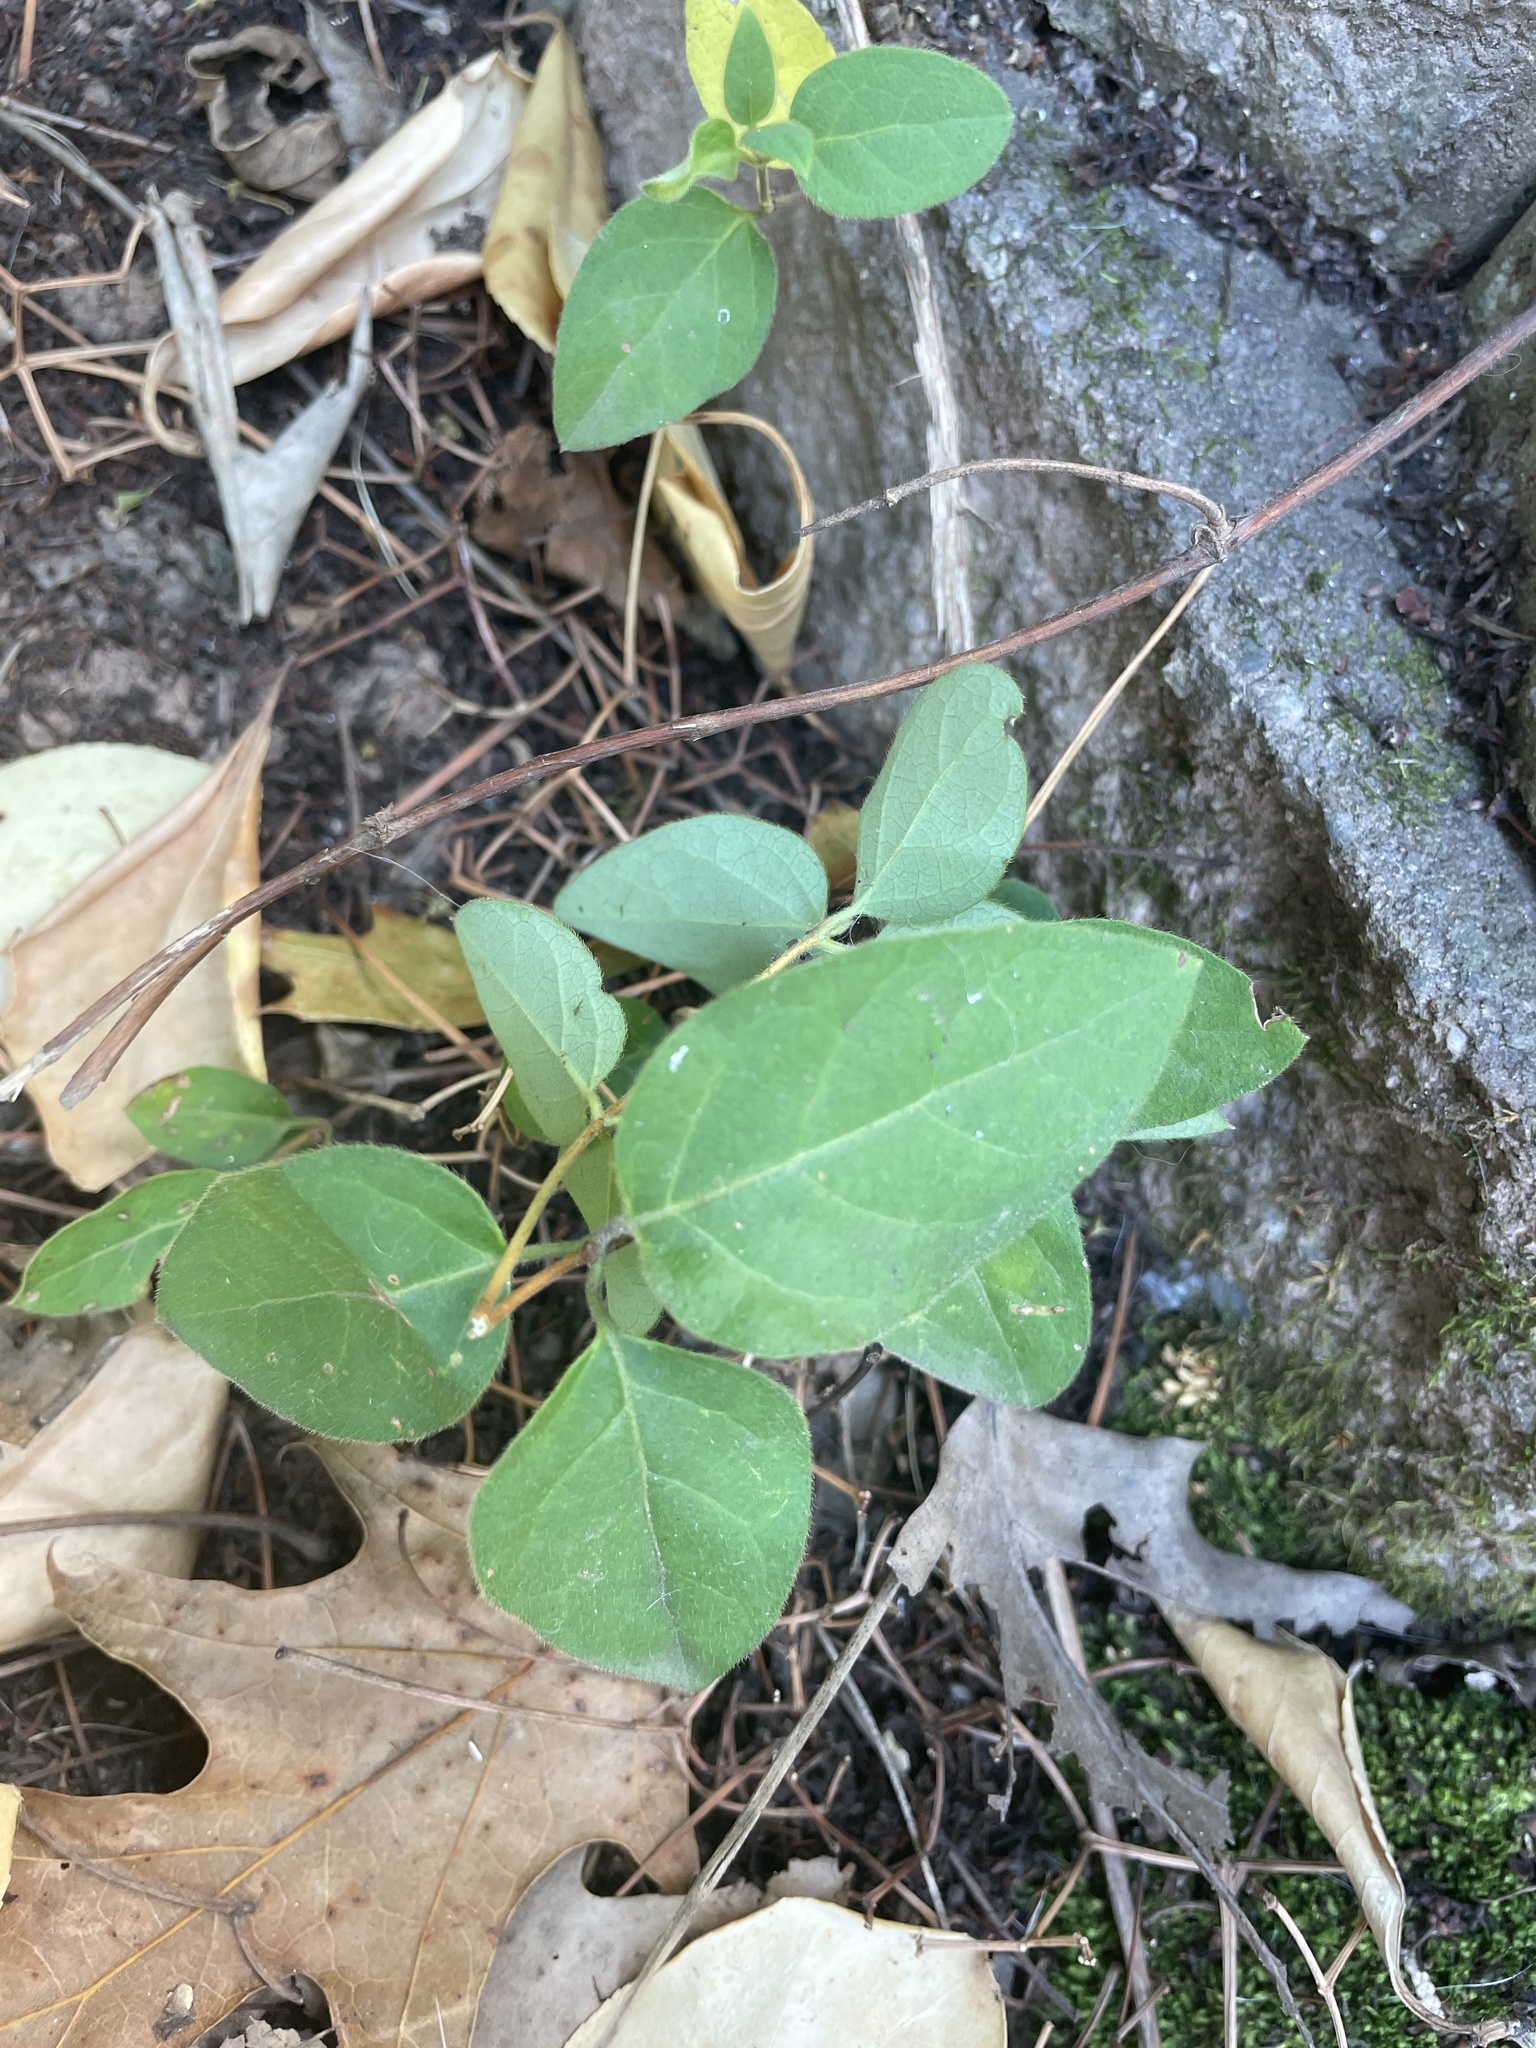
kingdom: Plantae
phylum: Tracheophyta
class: Magnoliopsida
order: Dipsacales
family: Caprifoliaceae
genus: Lonicera
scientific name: Lonicera japonica
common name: Japanese honeysuckle
